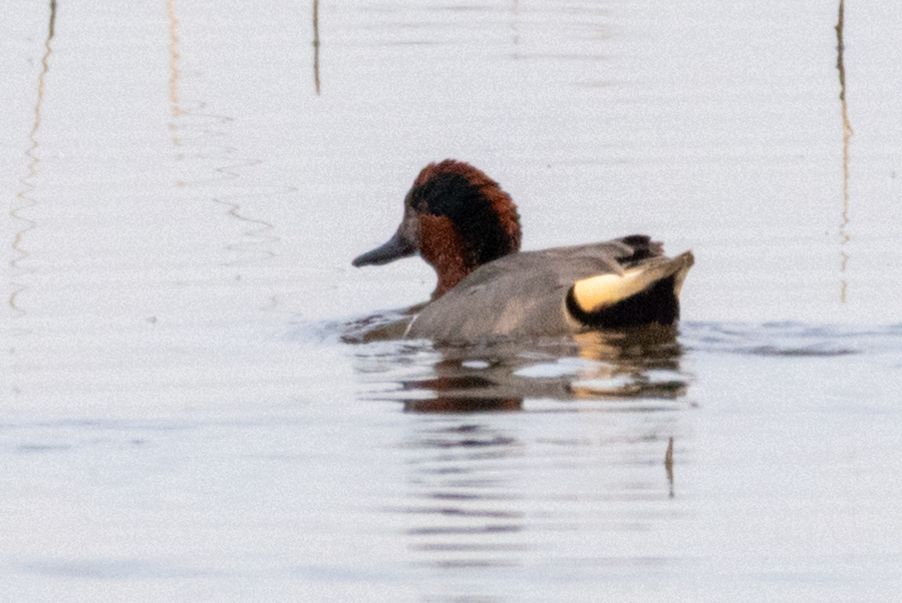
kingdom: Animalia
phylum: Chordata
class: Aves
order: Anseriformes
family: Anatidae
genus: Anas
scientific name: Anas crecca
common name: Eurasian teal
